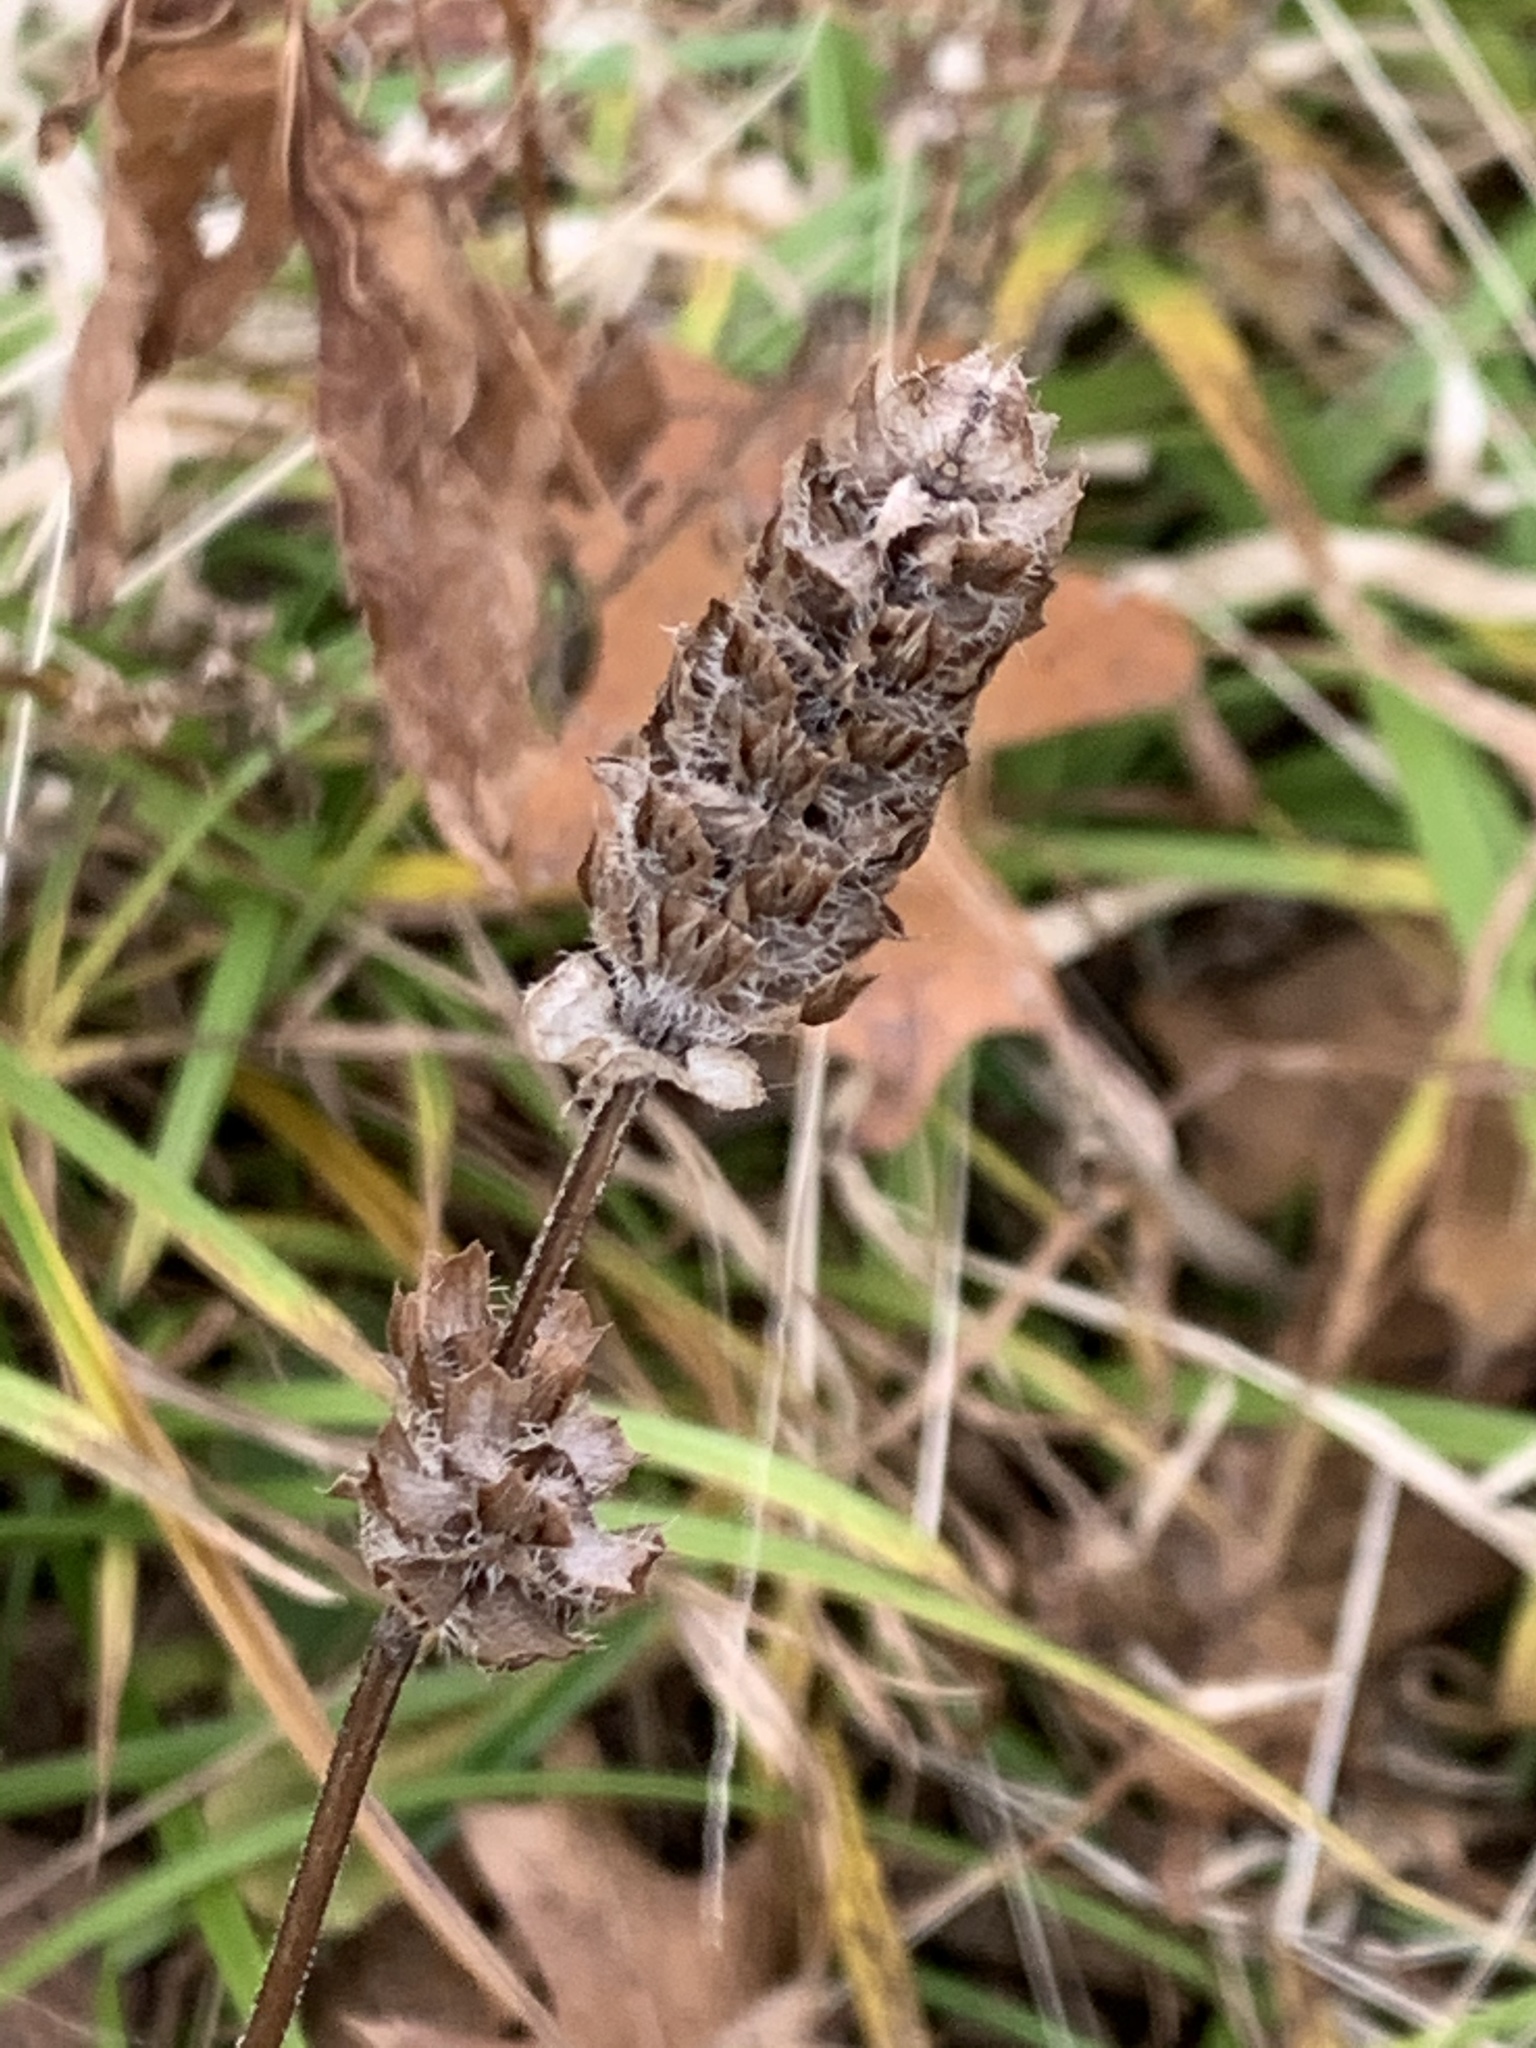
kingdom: Plantae
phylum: Tracheophyta
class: Magnoliopsida
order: Lamiales
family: Lamiaceae
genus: Prunella
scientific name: Prunella vulgaris
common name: Heal-all
